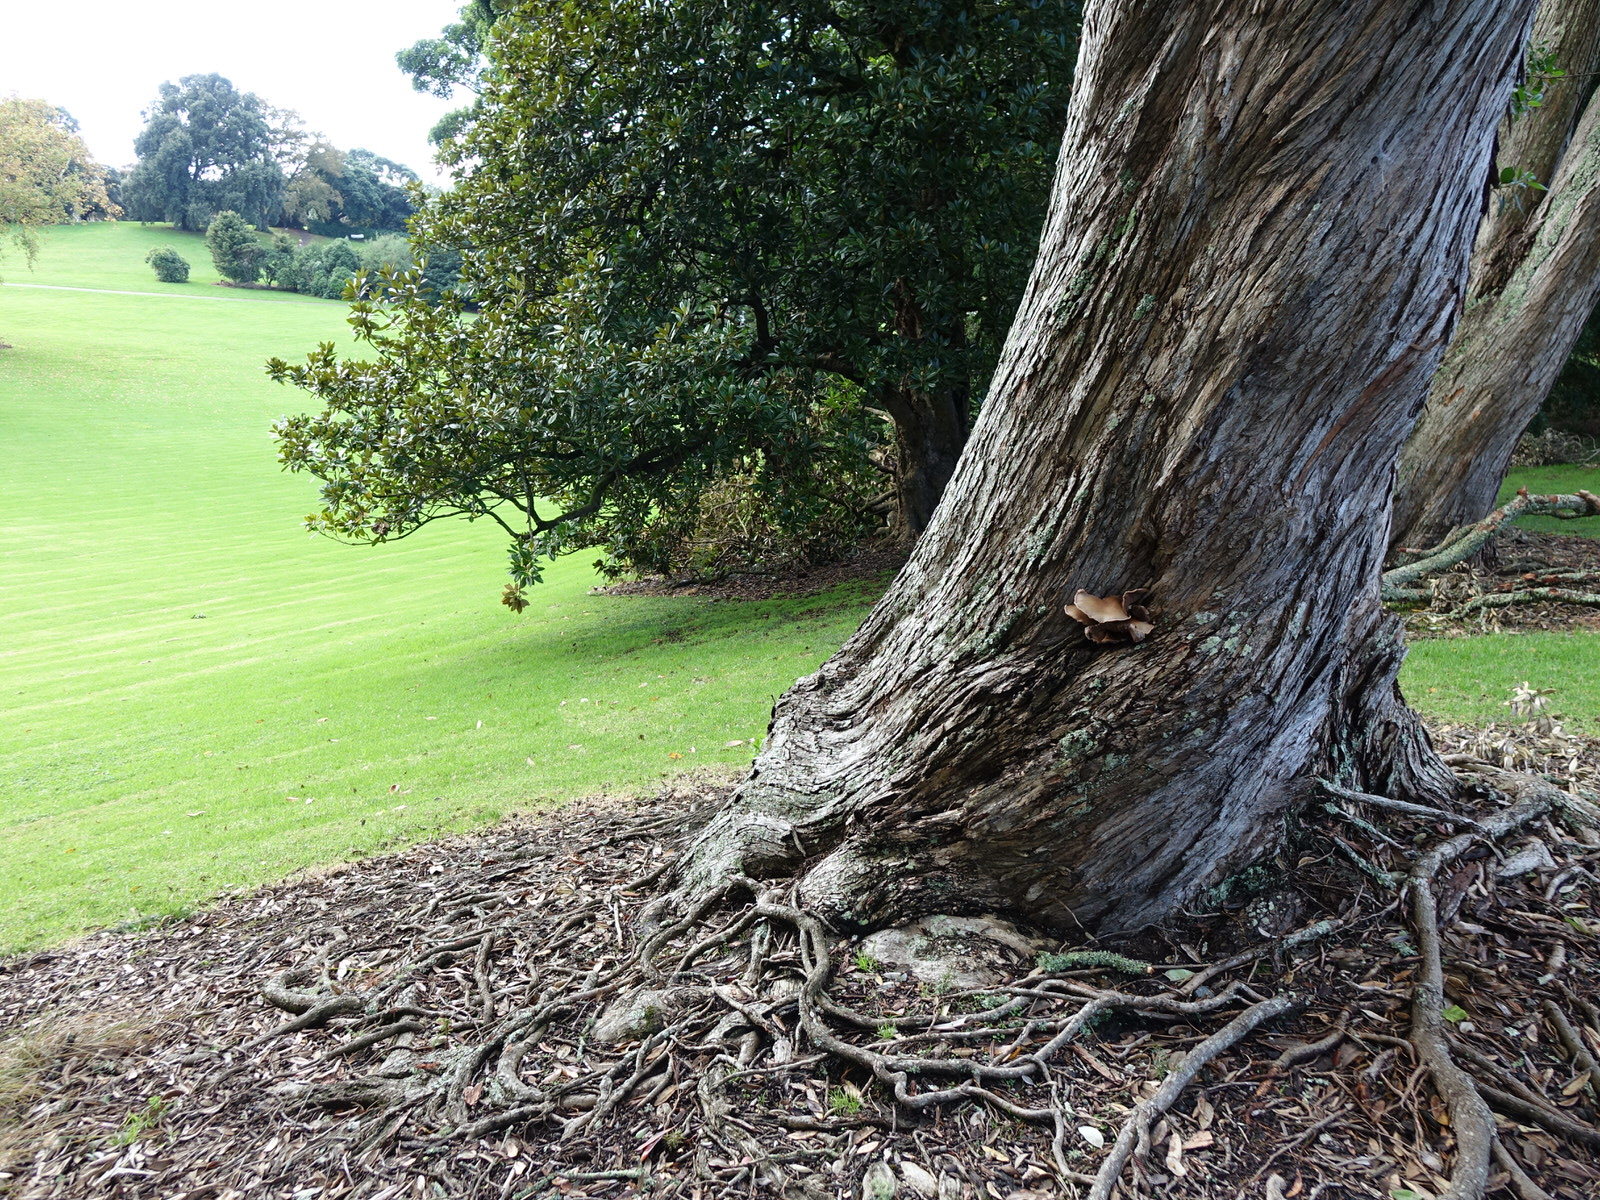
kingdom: Fungi
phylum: Basidiomycota
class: Agaricomycetes
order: Agaricales
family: Tubariaceae
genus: Cyclocybe
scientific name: Cyclocybe parasitica
